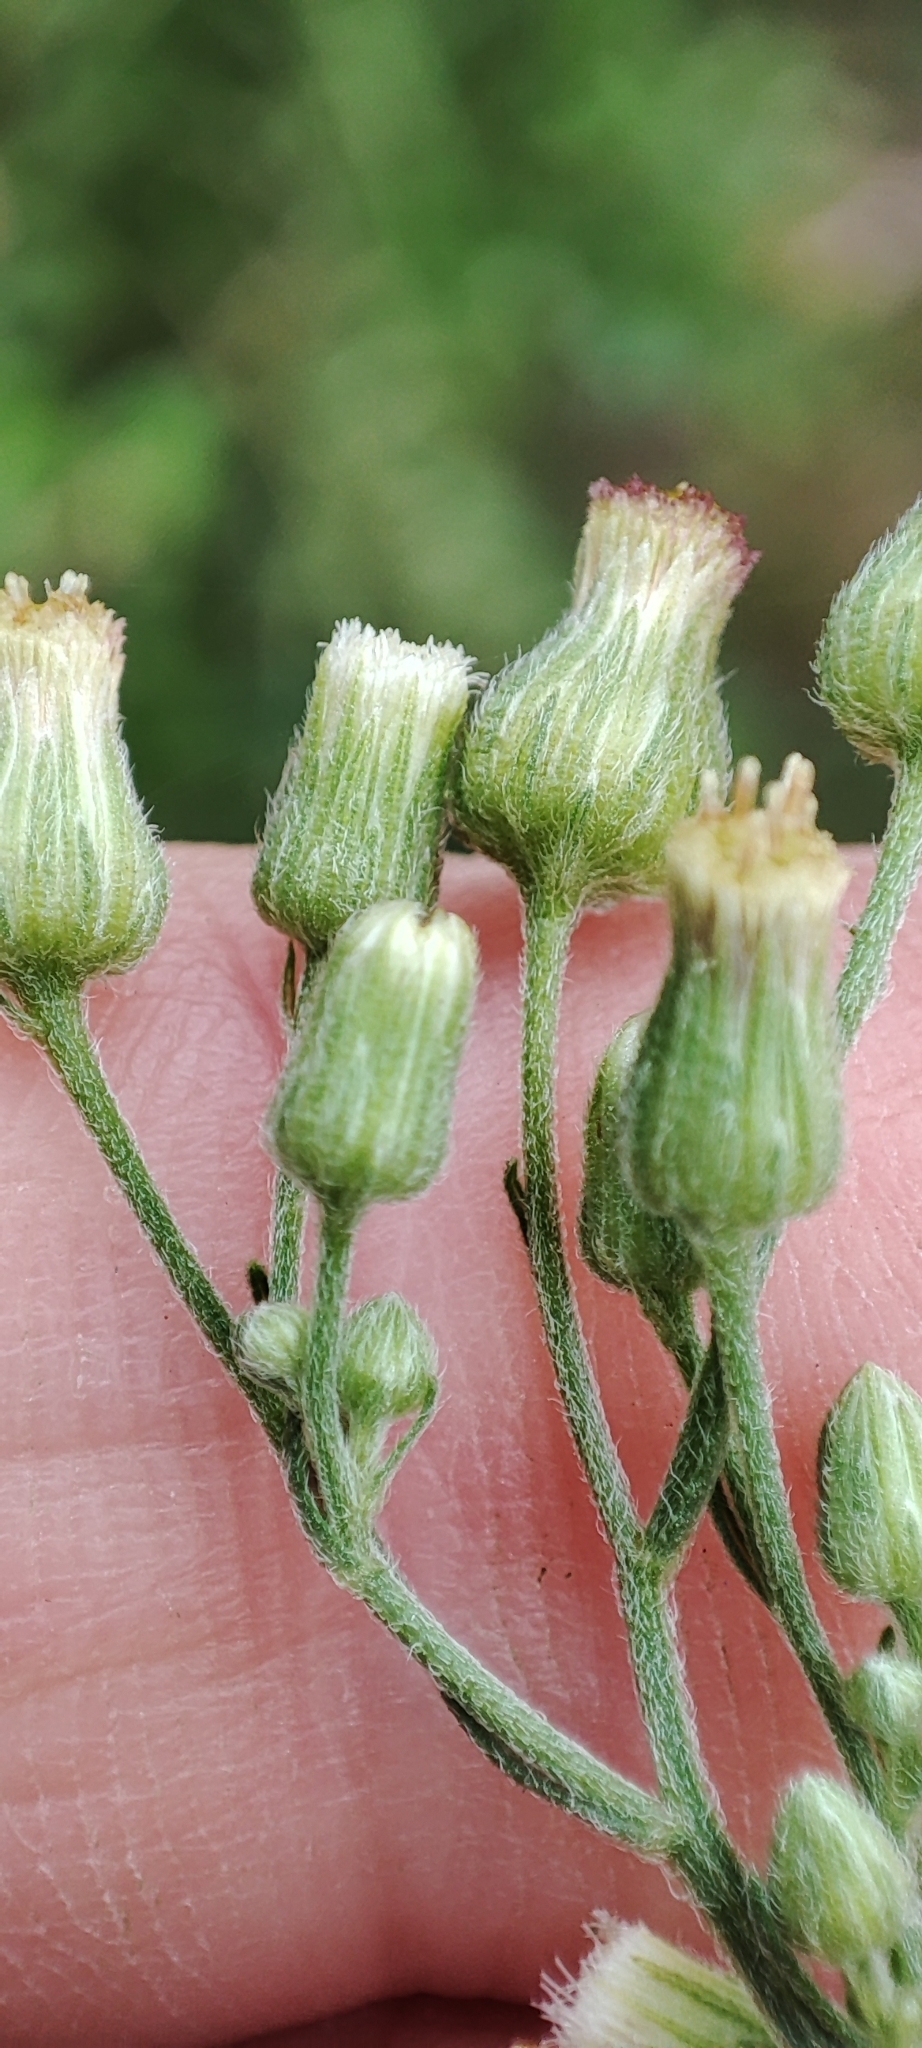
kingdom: Plantae
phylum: Tracheophyta
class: Magnoliopsida
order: Asterales
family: Asteraceae
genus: Erigeron
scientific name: Erigeron sumatrensis
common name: Daisy
